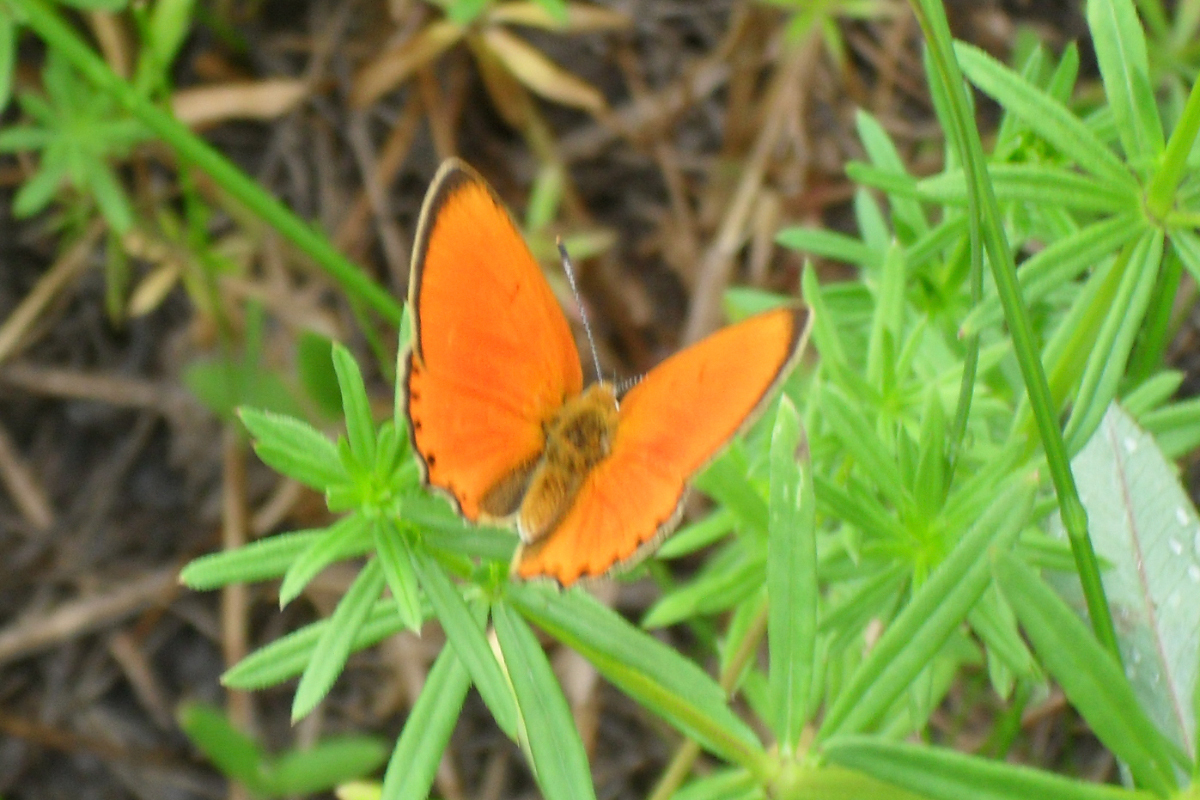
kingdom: Animalia
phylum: Arthropoda
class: Insecta
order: Lepidoptera
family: Lycaenidae
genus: Lycaena
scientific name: Lycaena virgaureae
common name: Scarce copper
